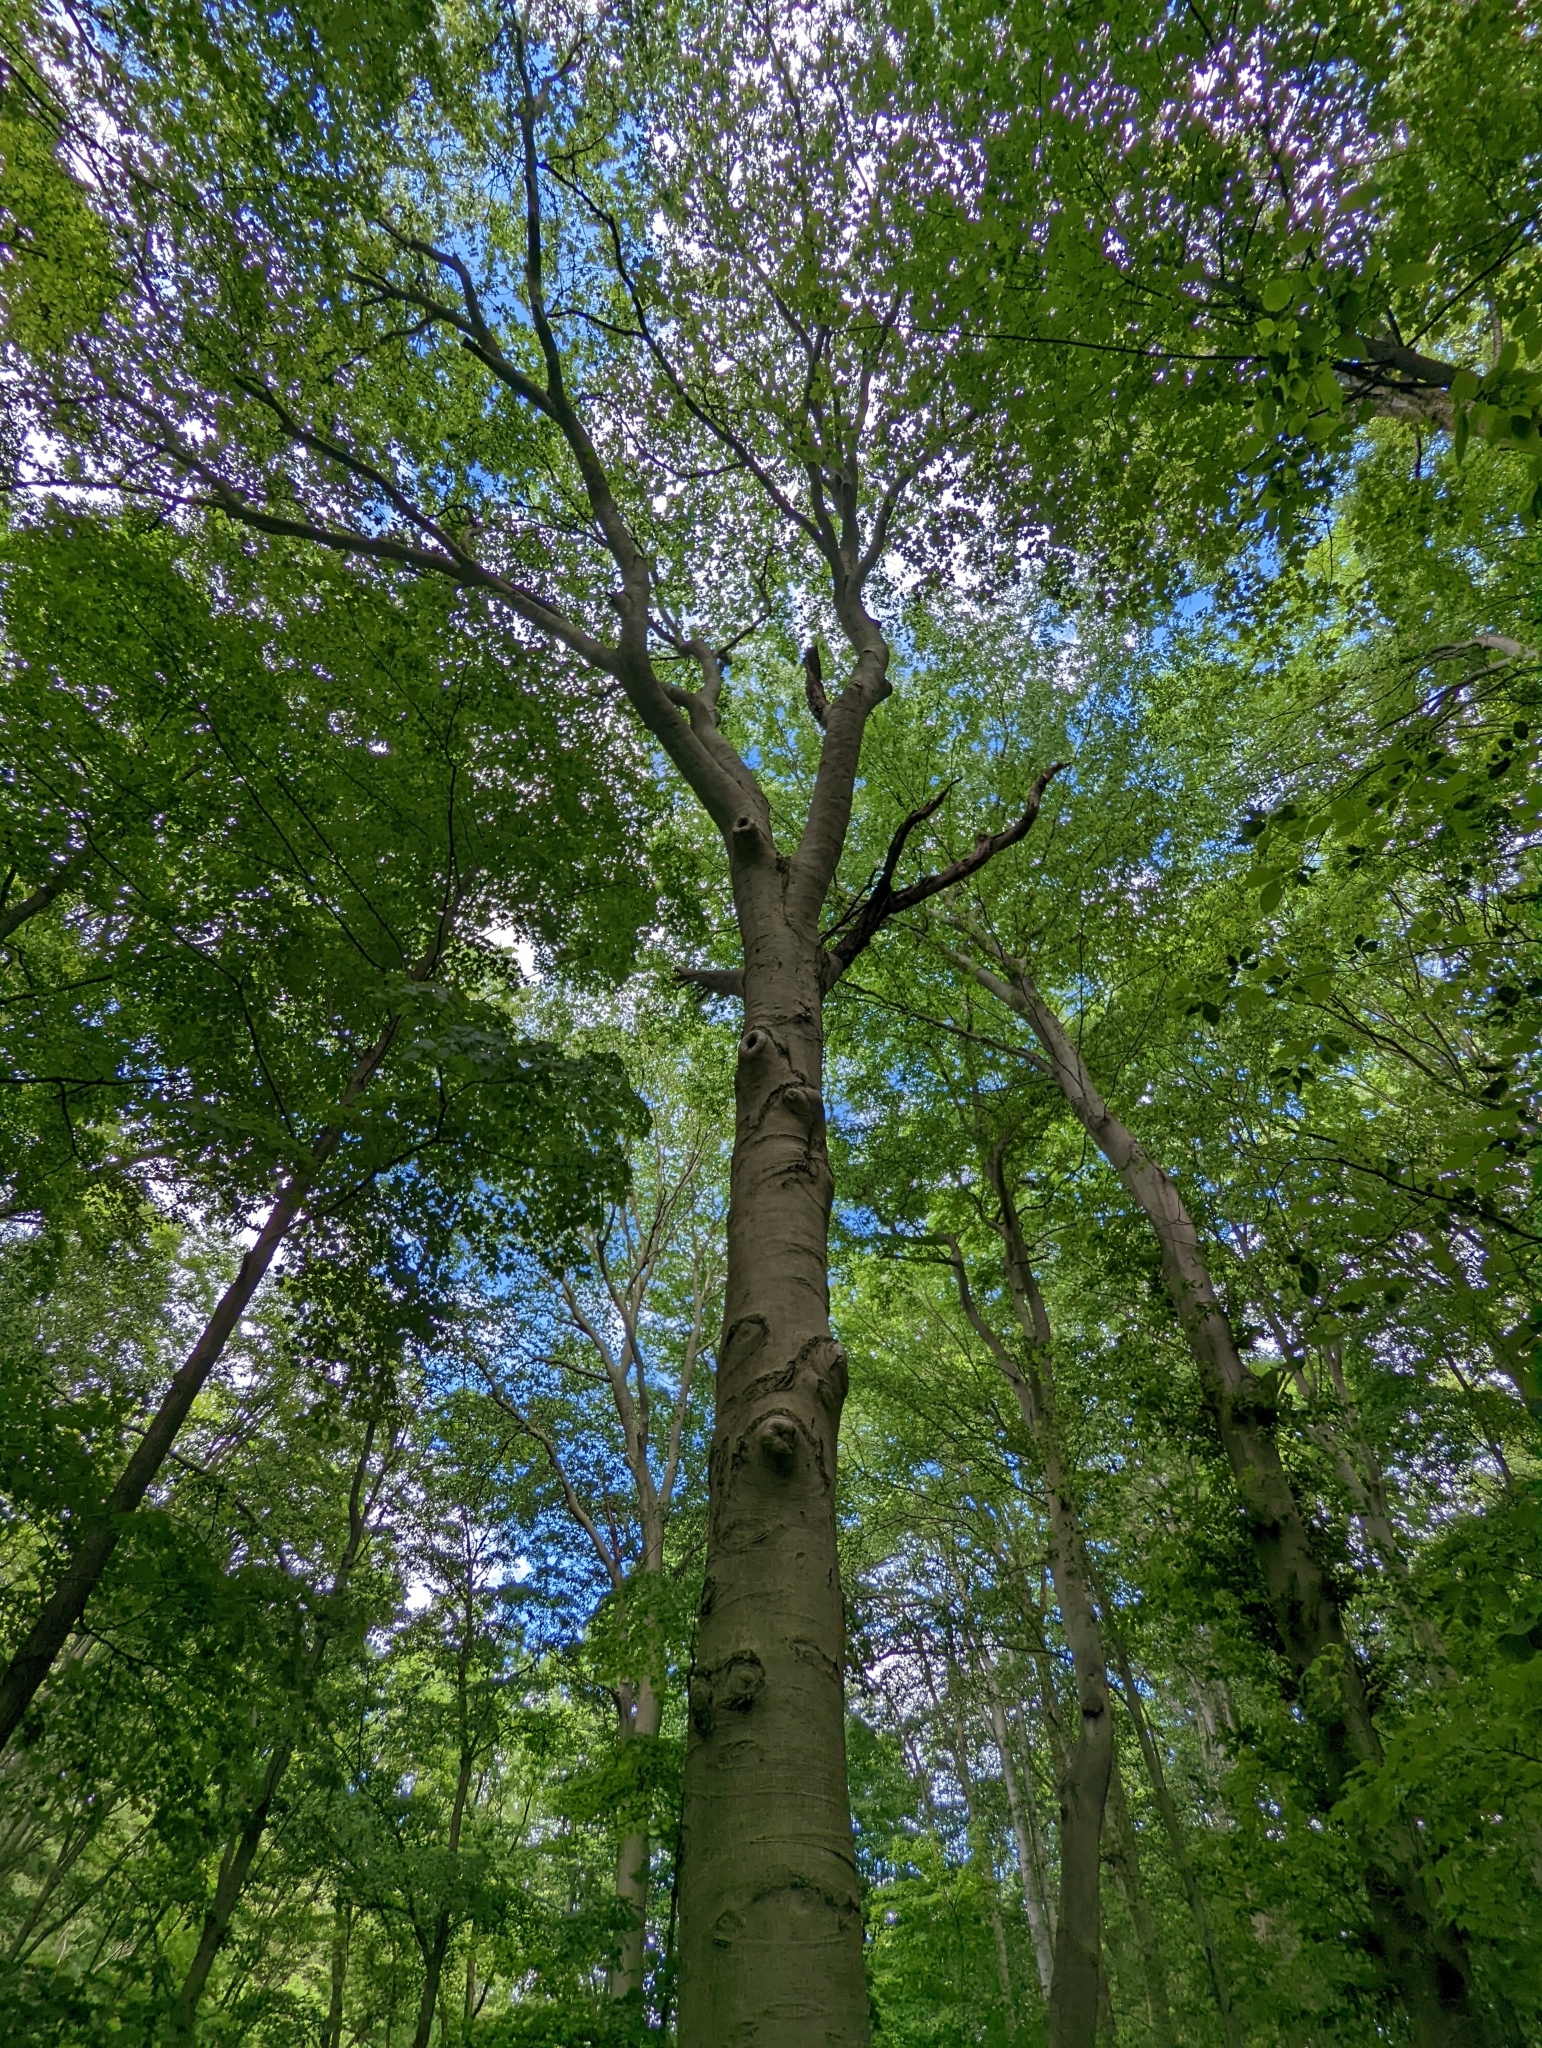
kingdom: Plantae
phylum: Tracheophyta
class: Magnoliopsida
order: Fagales
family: Fagaceae
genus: Fagus
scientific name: Fagus grandifolia
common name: American beech
